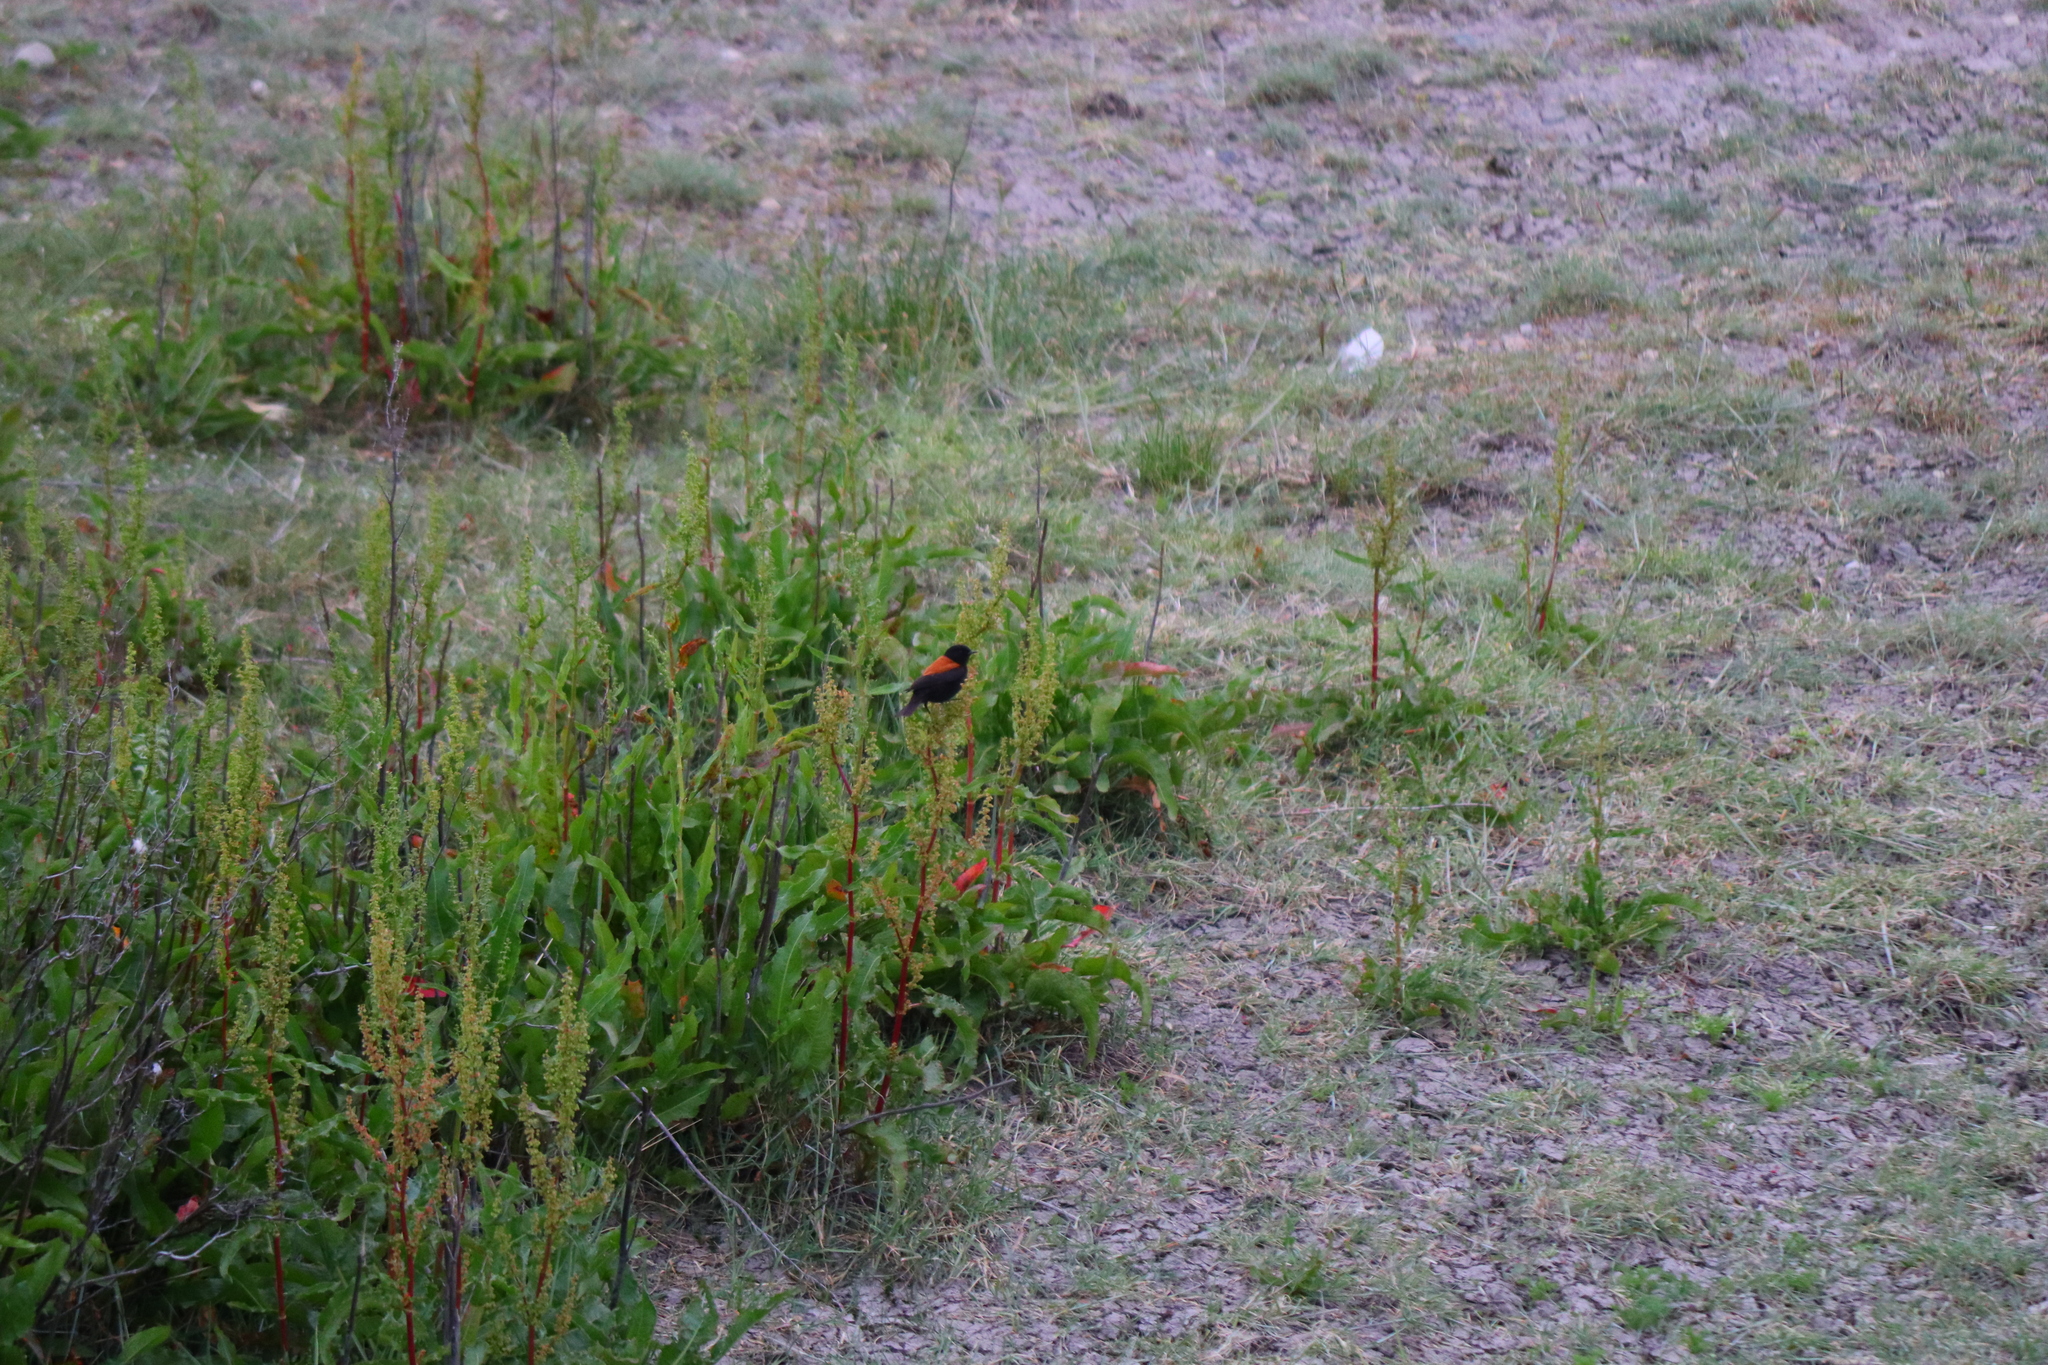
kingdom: Animalia
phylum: Chordata
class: Aves
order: Passeriformes
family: Tyrannidae
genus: Lessonia
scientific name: Lessonia rufa
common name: Austral negrito
